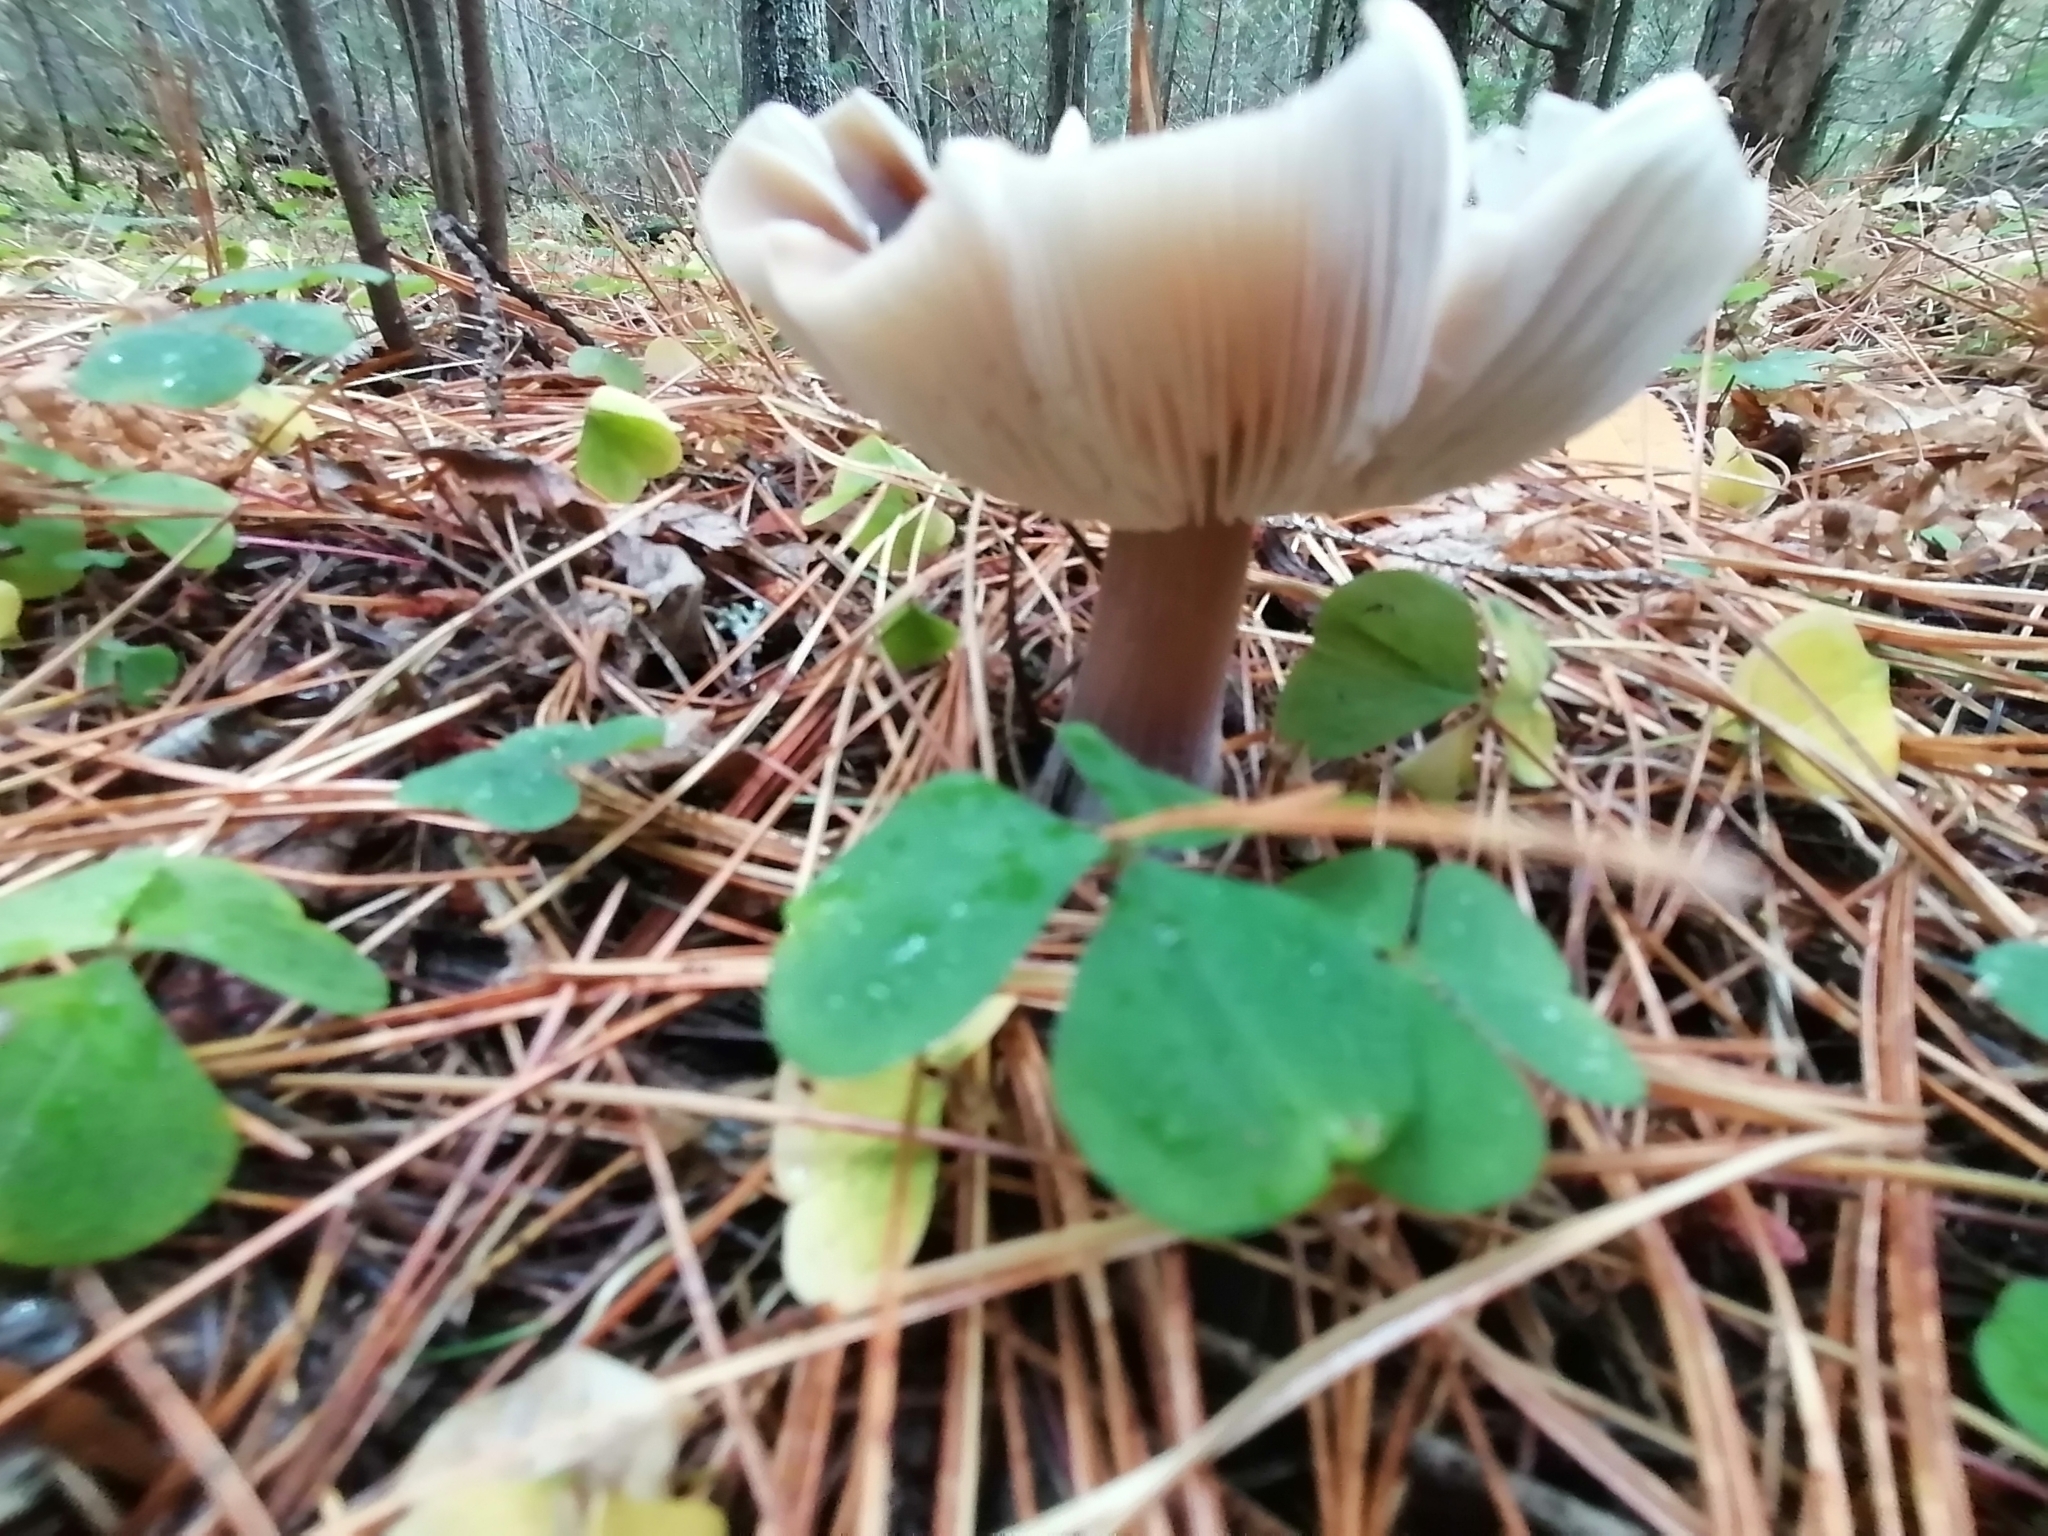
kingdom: Fungi
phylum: Basidiomycota
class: Agaricomycetes
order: Agaricales
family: Omphalotaceae
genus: Rhodocollybia
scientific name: Rhodocollybia butyracea
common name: Butter cap
